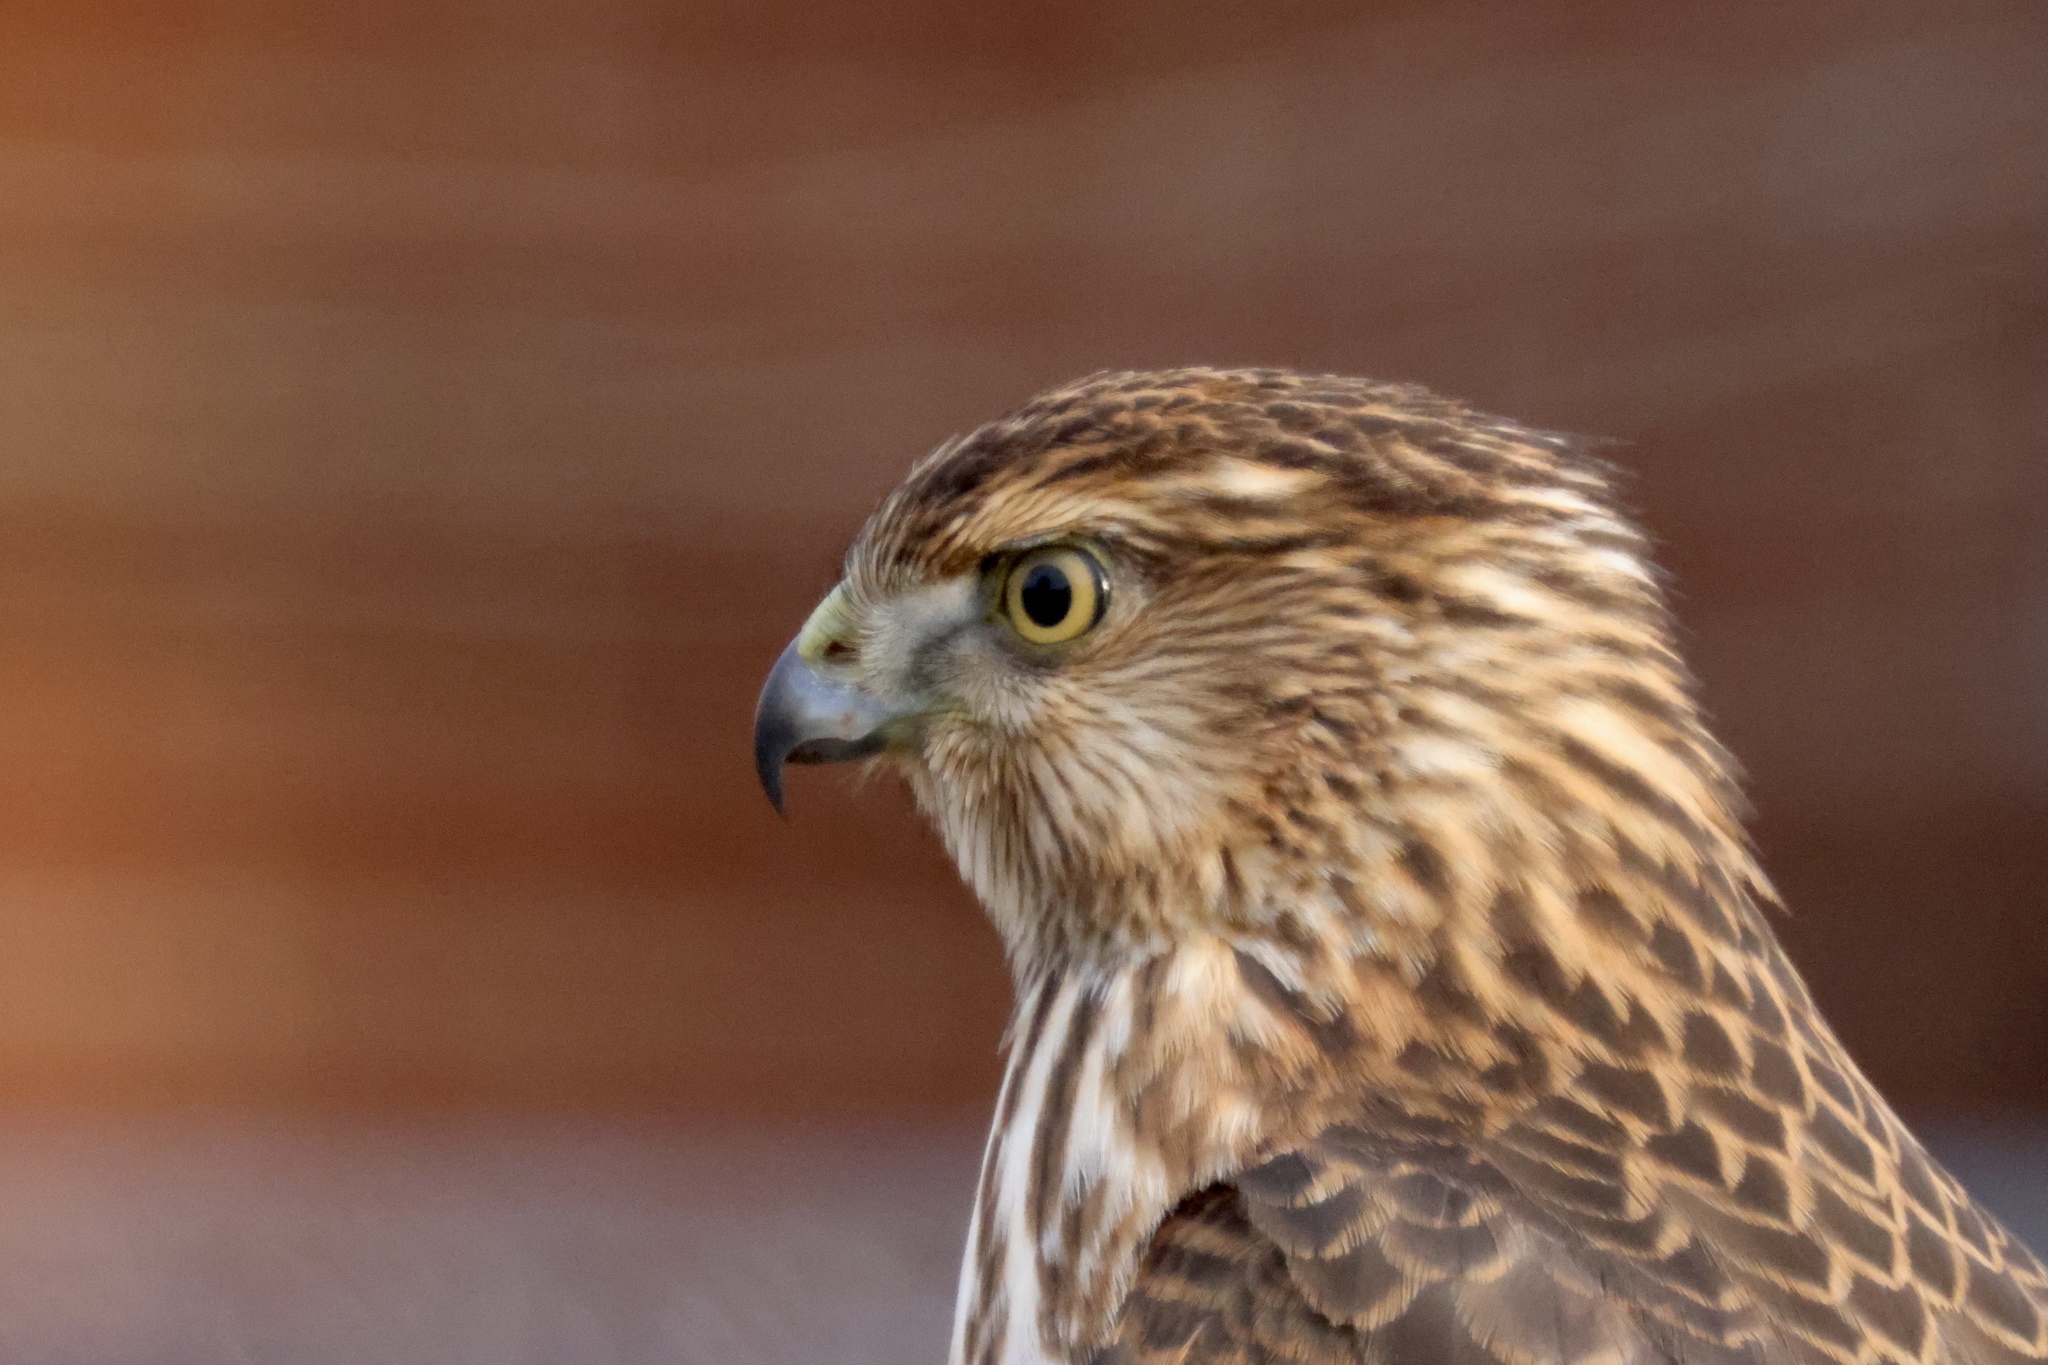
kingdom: Animalia
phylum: Chordata
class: Aves
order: Accipitriformes
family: Accipitridae
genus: Accipiter
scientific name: Accipiter cooperii
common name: Cooper's hawk
